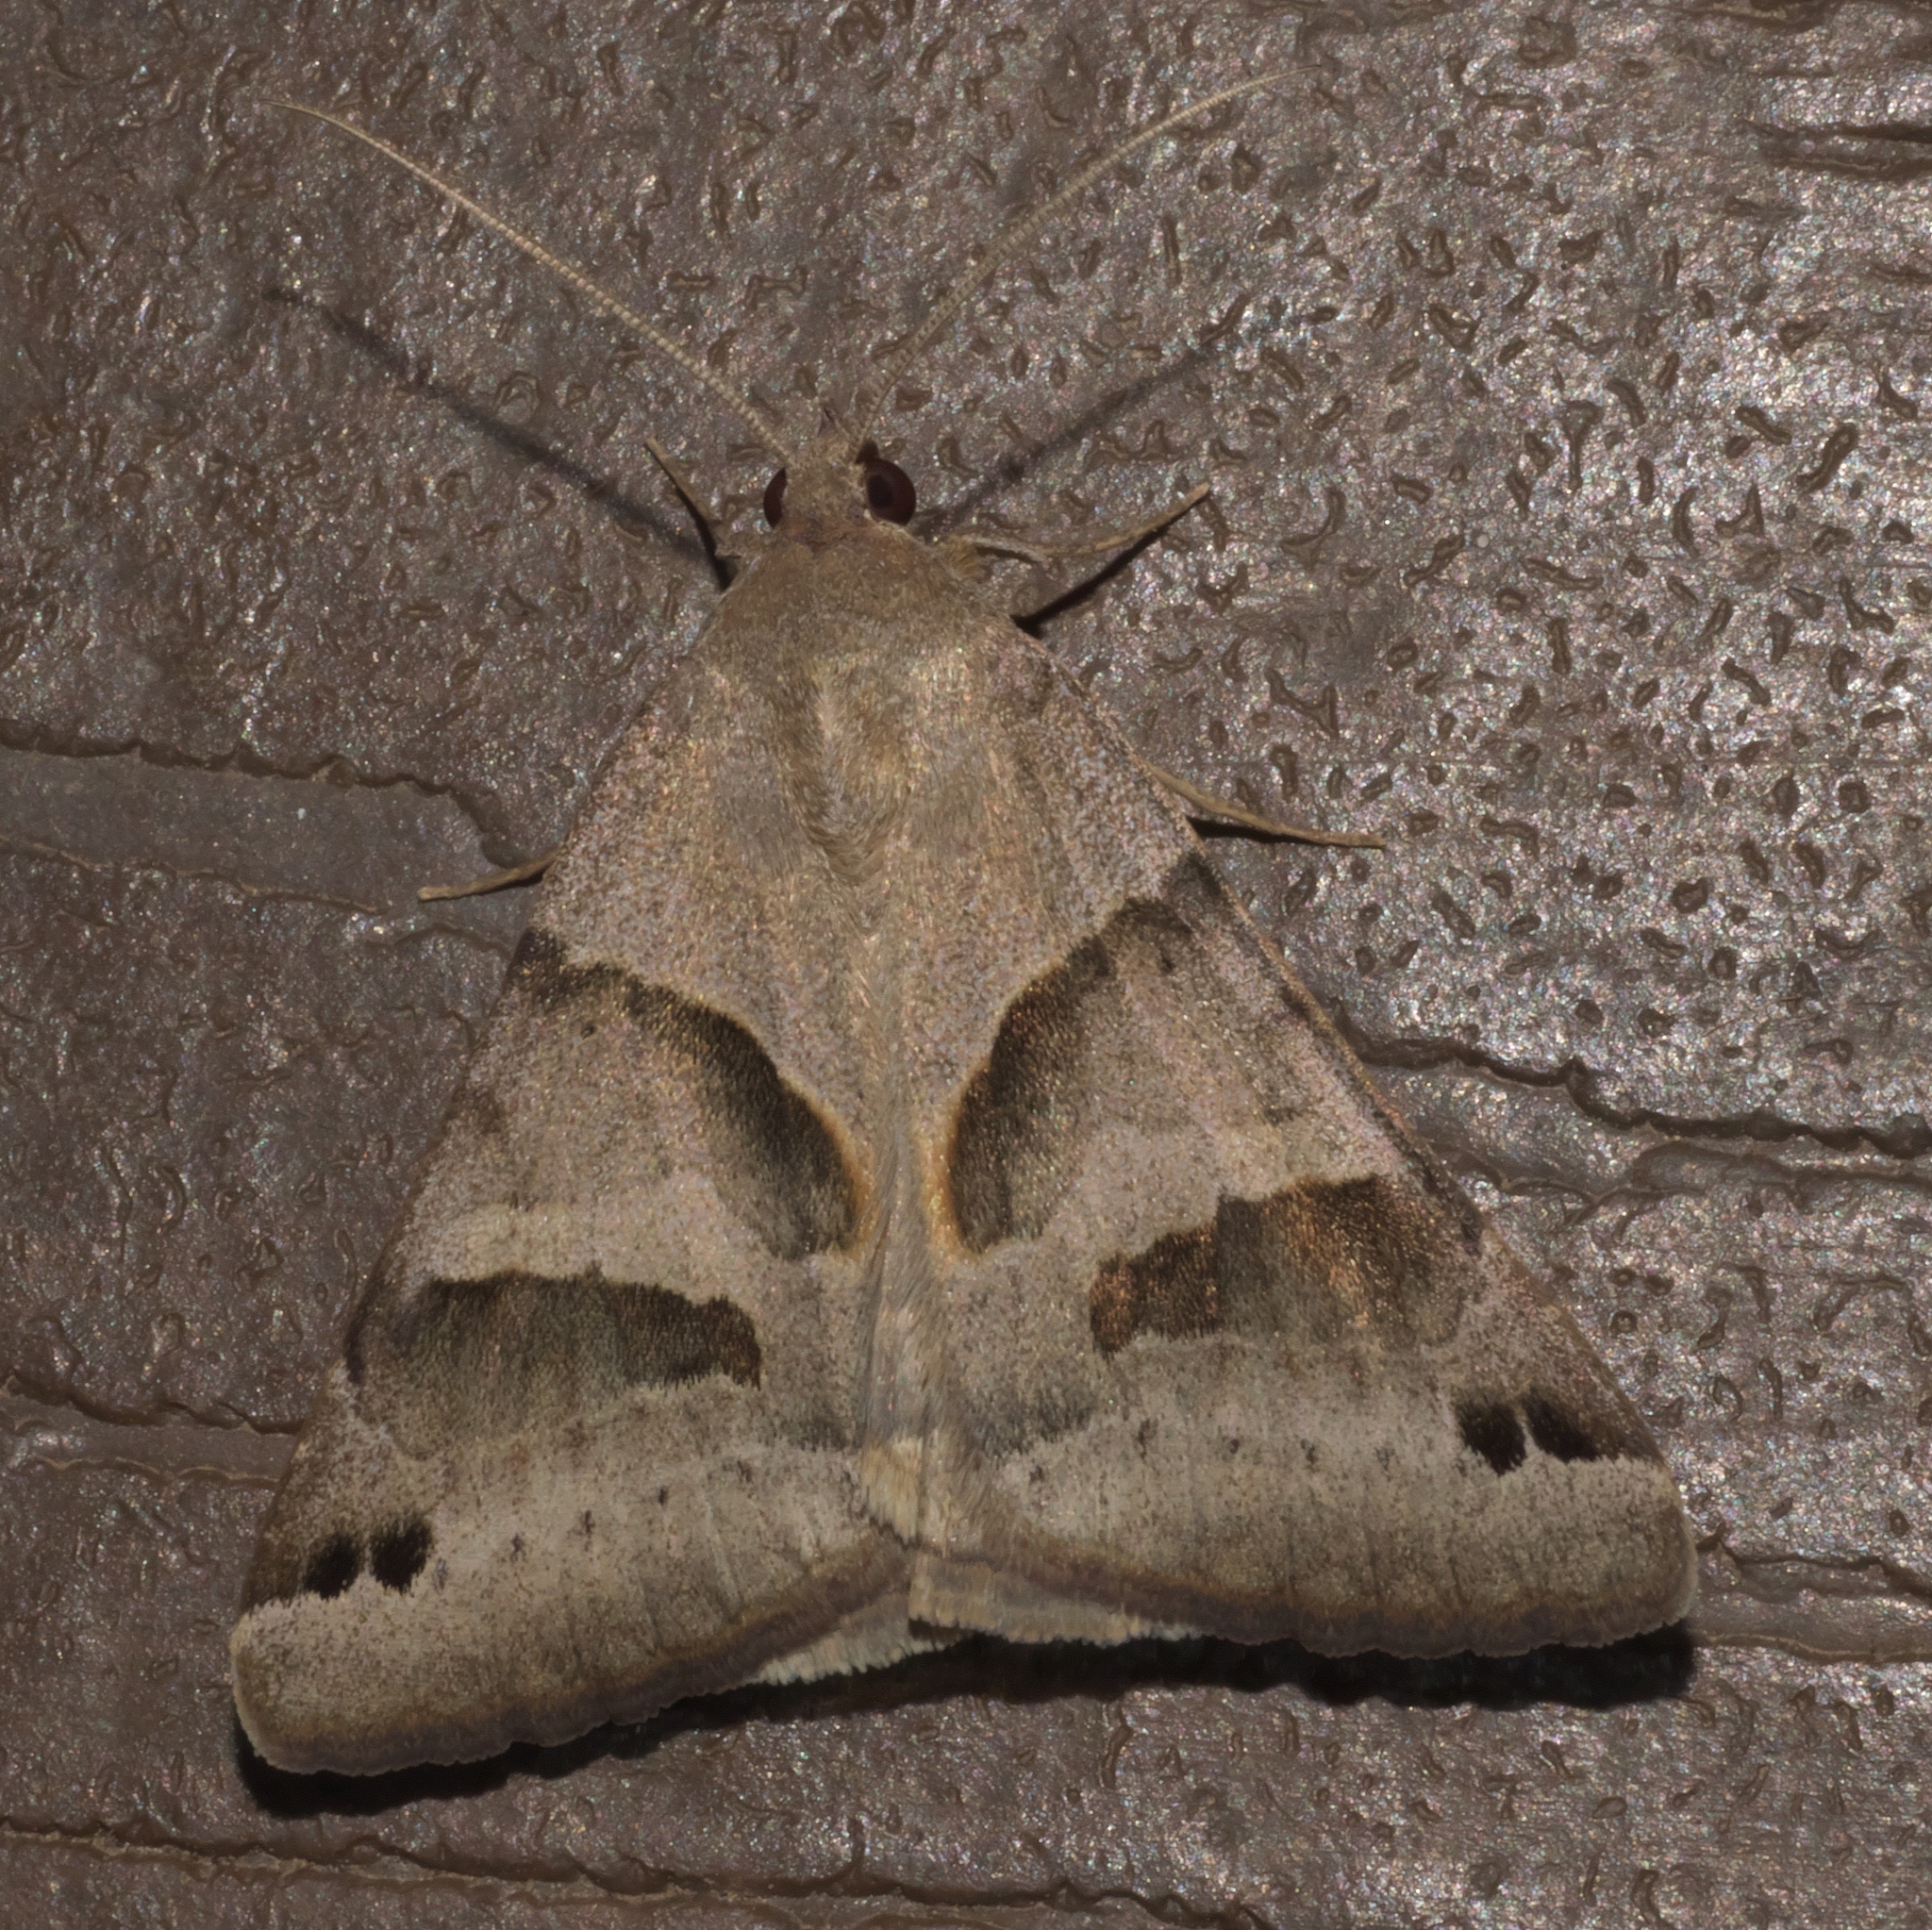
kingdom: Animalia
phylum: Arthropoda
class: Insecta
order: Lepidoptera
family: Erebidae
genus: Caenurgina
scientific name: Caenurgina erechtea
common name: Forage looper moth
